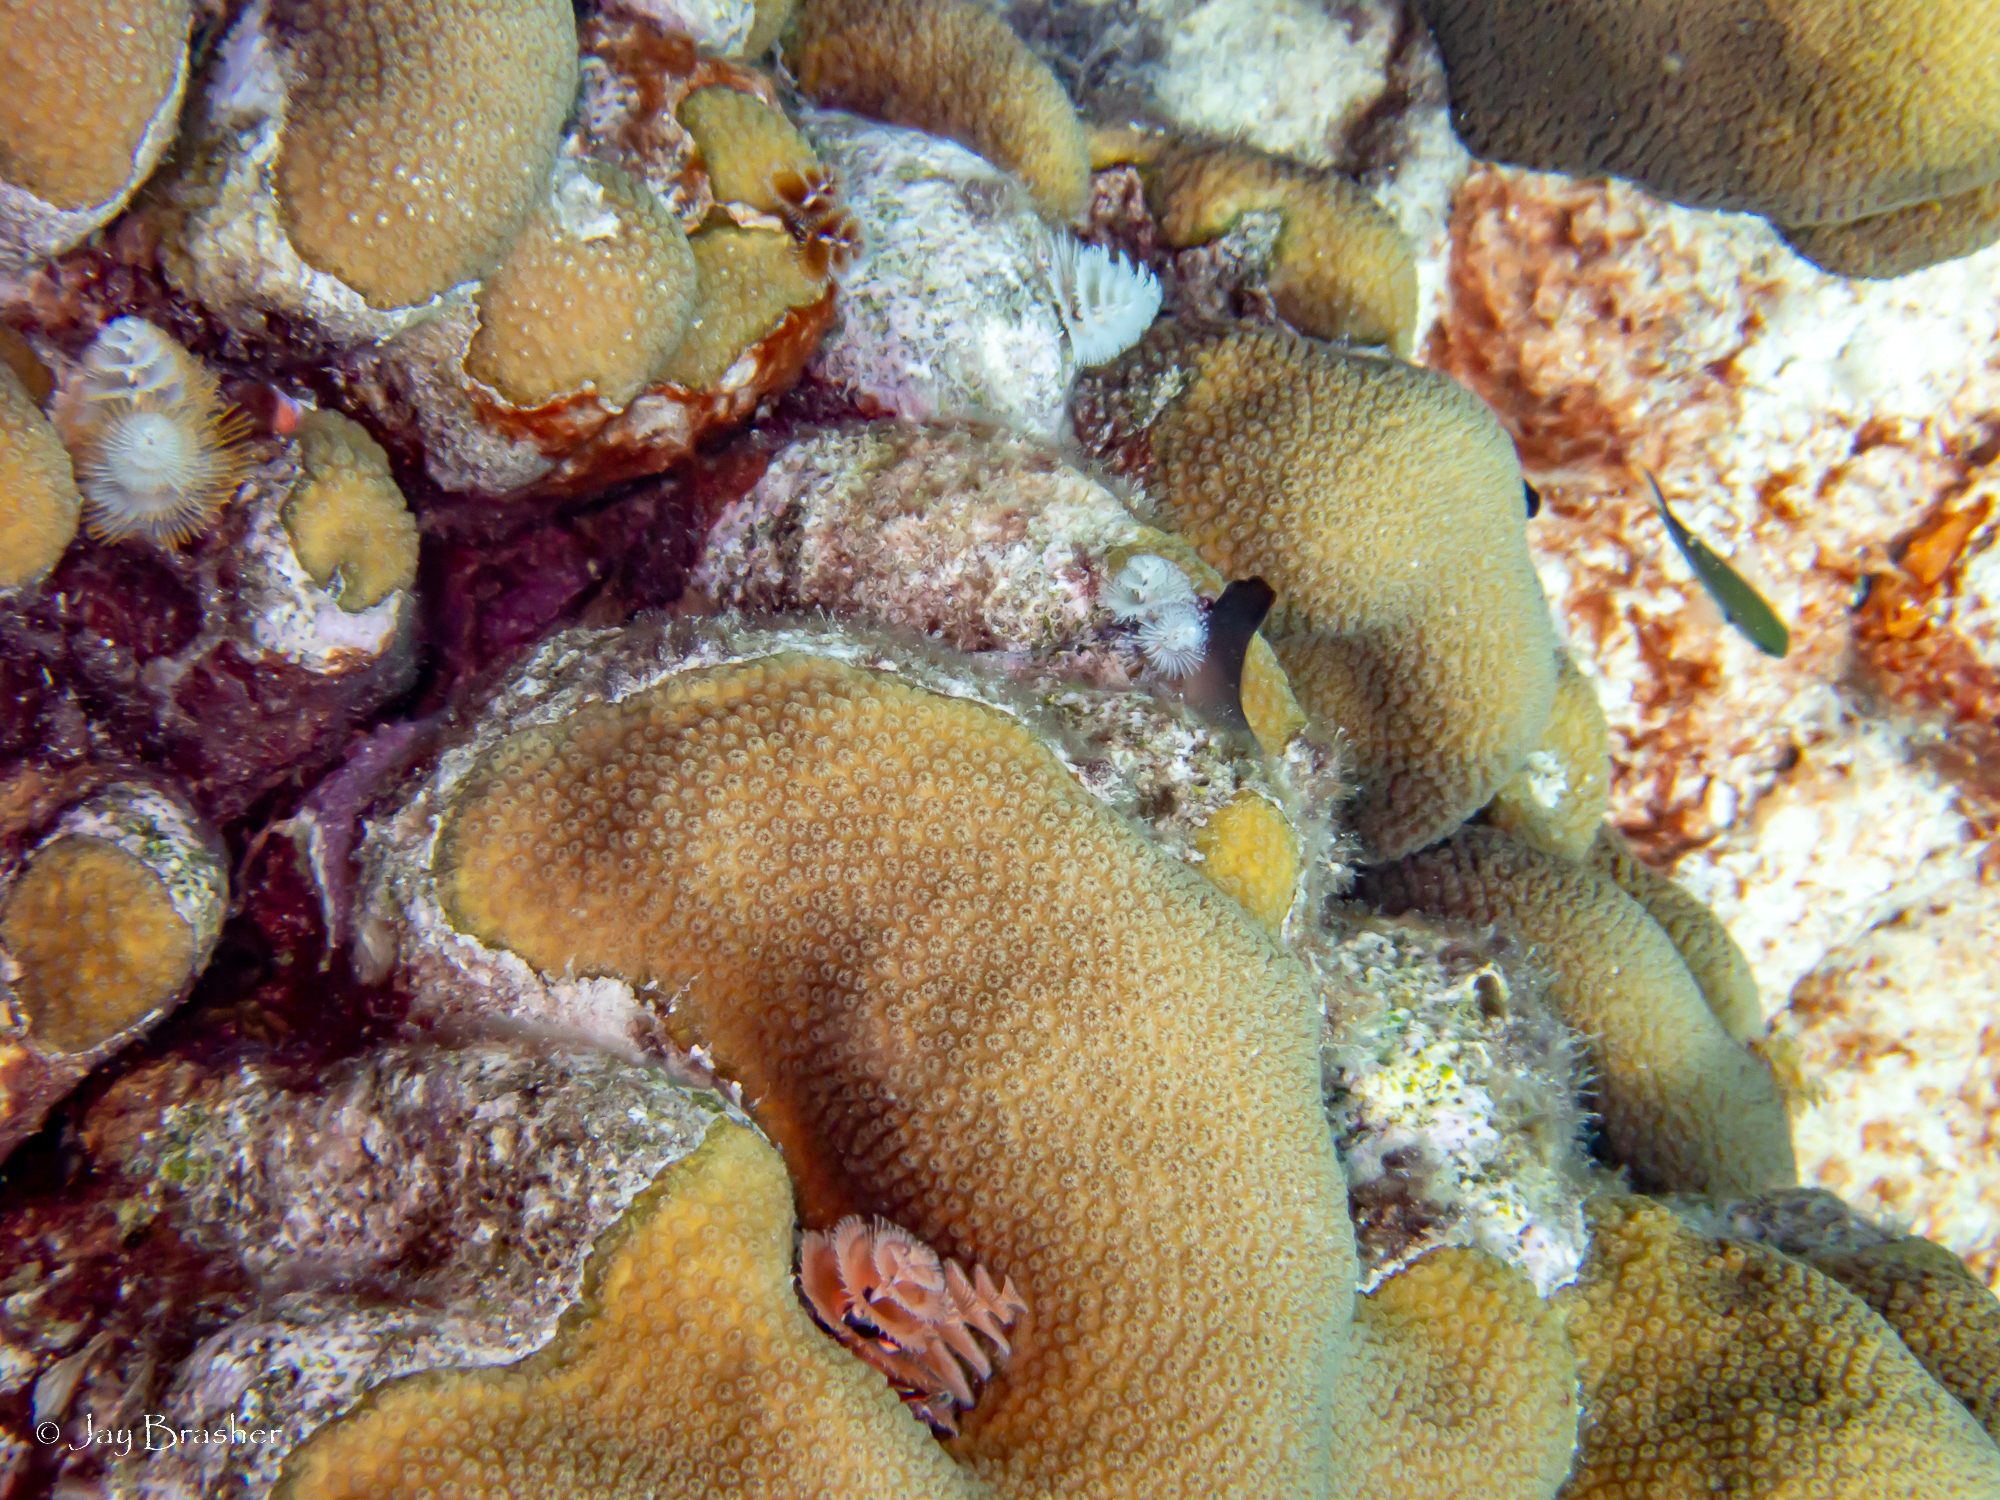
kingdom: Animalia
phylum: Cnidaria
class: Anthozoa
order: Scleractinia
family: Merulinidae
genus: Orbicella
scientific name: Orbicella annularis
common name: Boulder star coral
